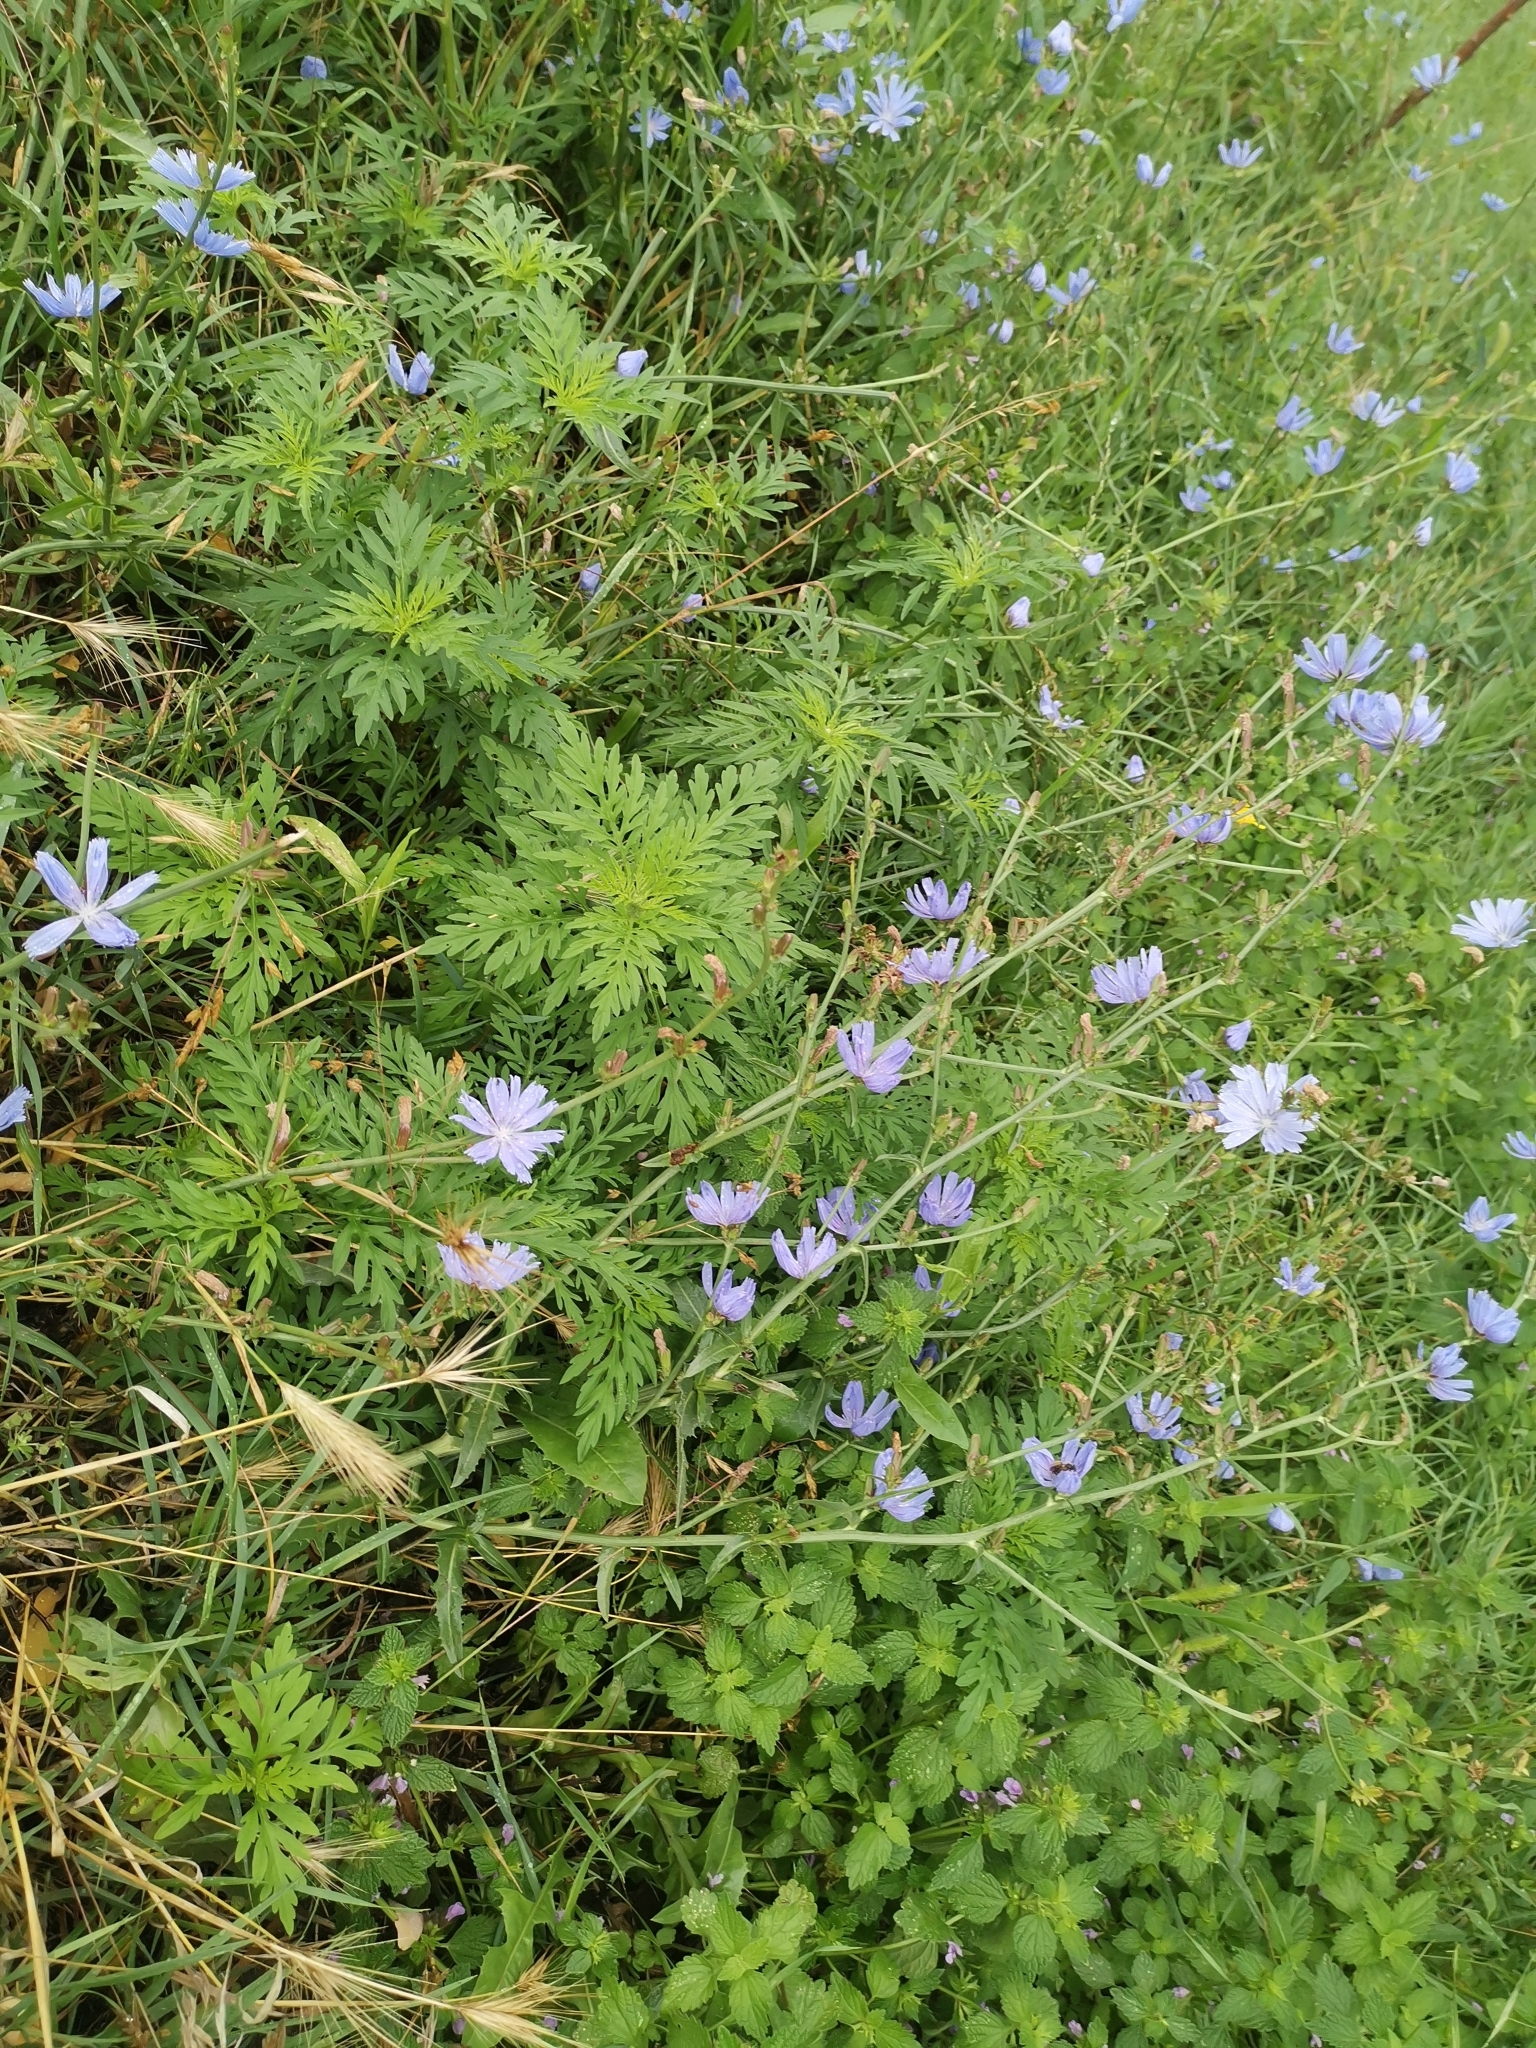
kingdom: Plantae
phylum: Tracheophyta
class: Magnoliopsida
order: Asterales
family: Asteraceae
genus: Cichorium
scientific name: Cichorium intybus
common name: Chicory
